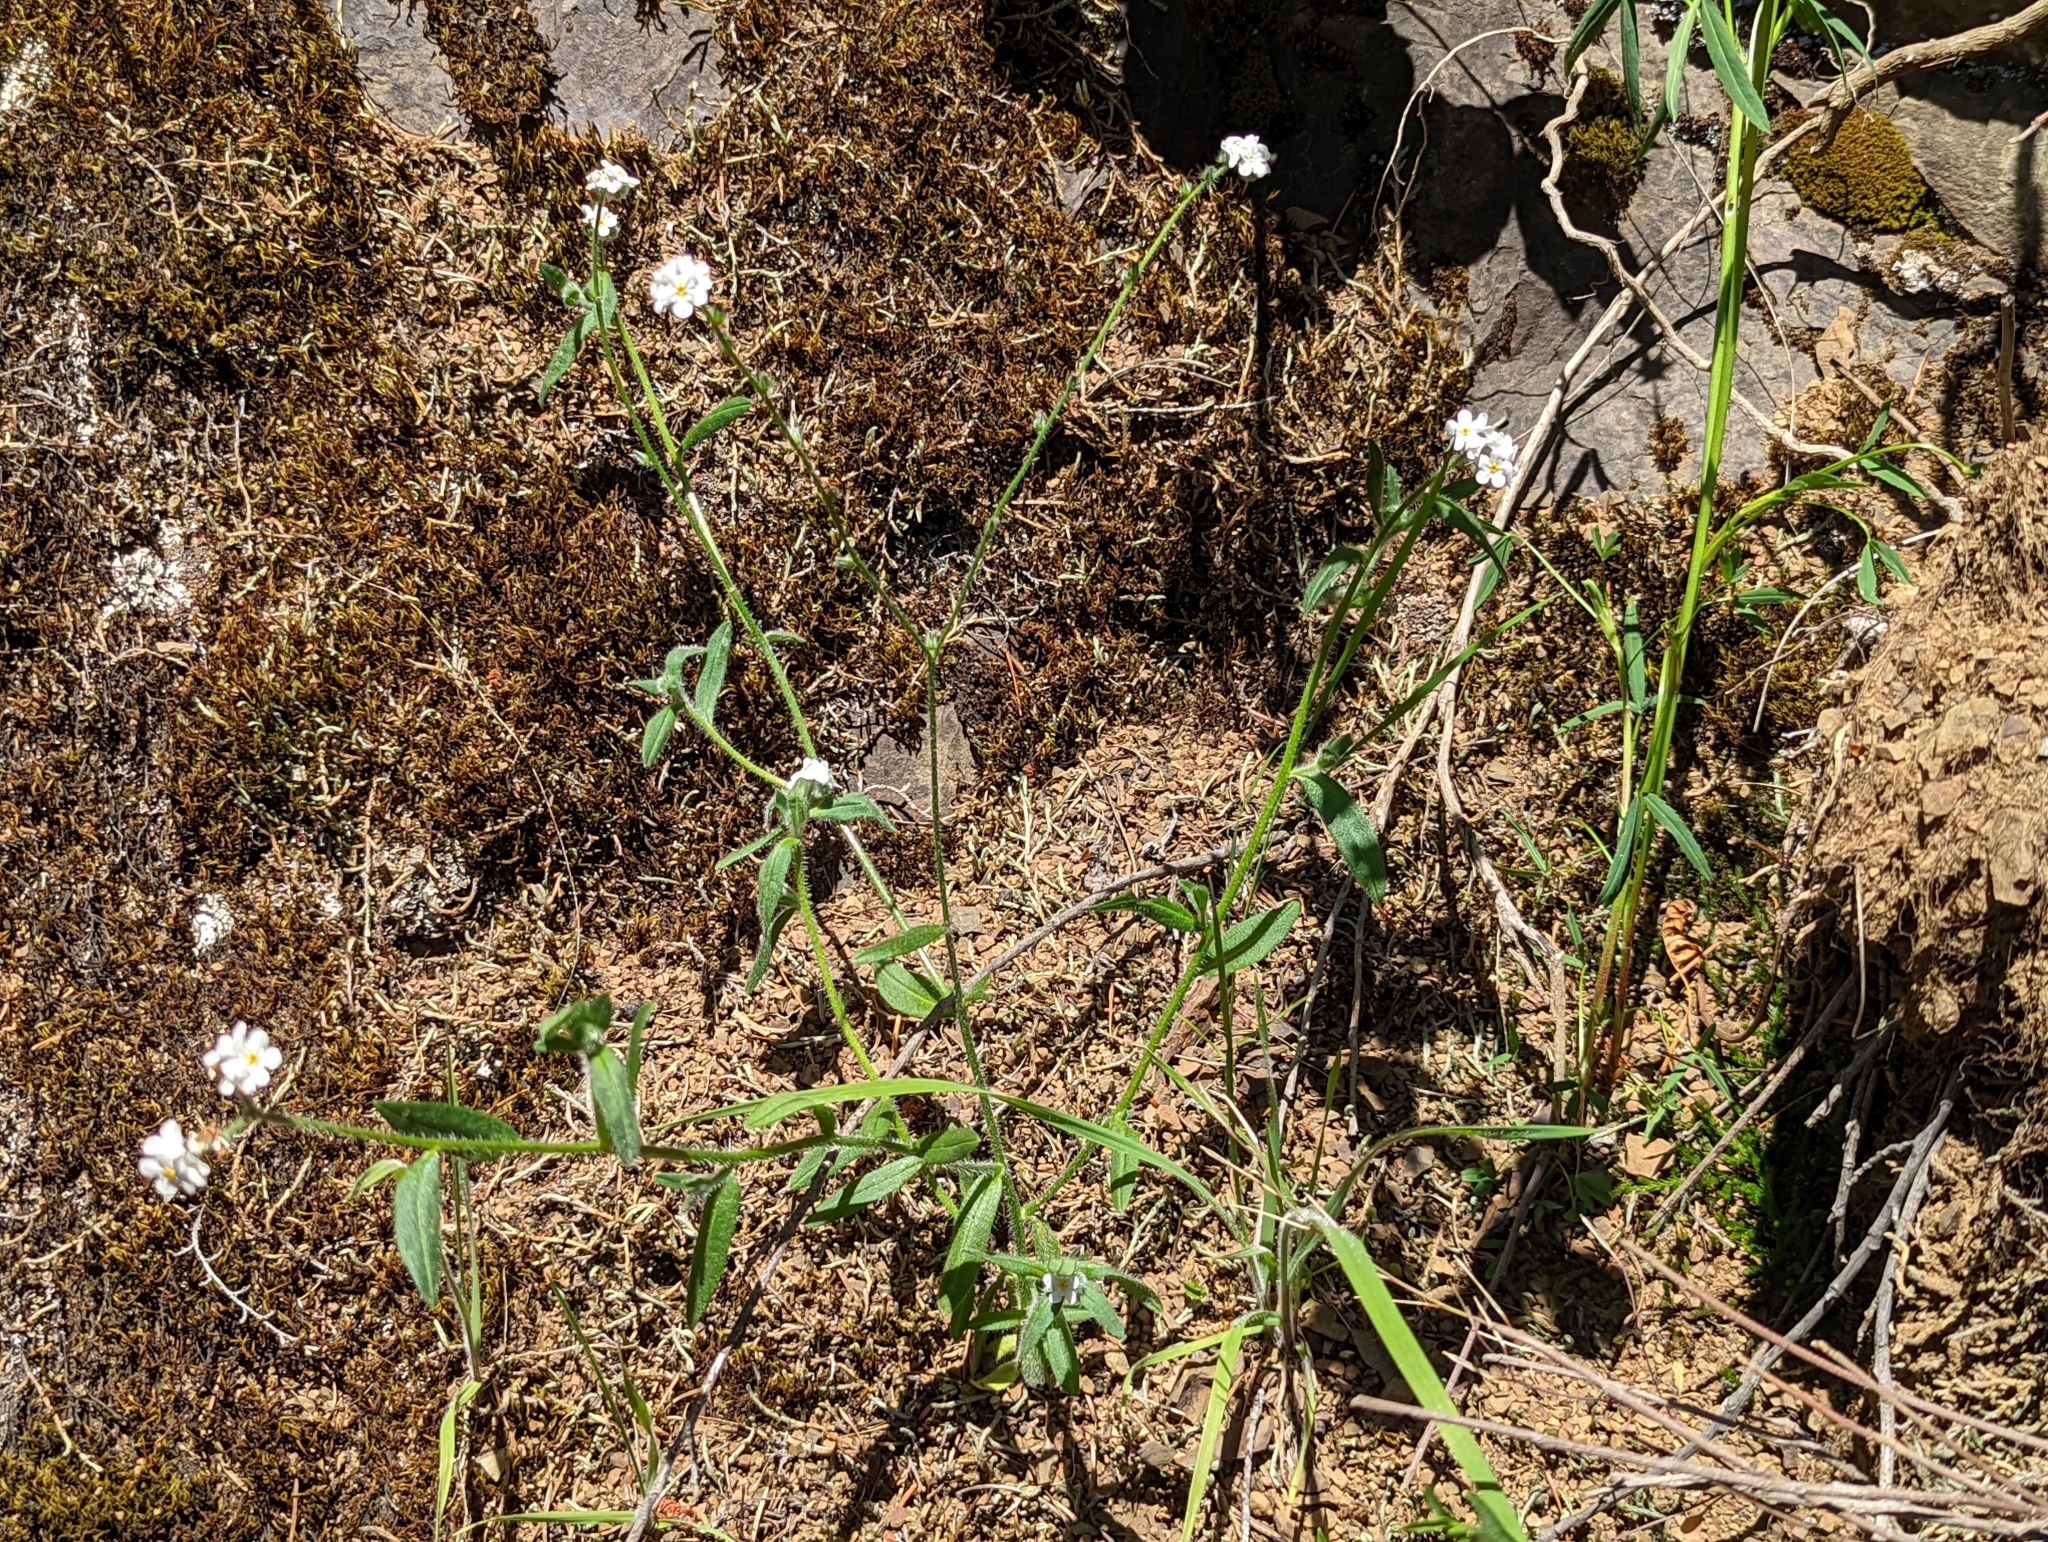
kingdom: Plantae
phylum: Tracheophyta
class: Magnoliopsida
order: Boraginales
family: Boraginaceae
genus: Cryptantha
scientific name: Cryptantha intermedia
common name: Clearwater cryptantha
